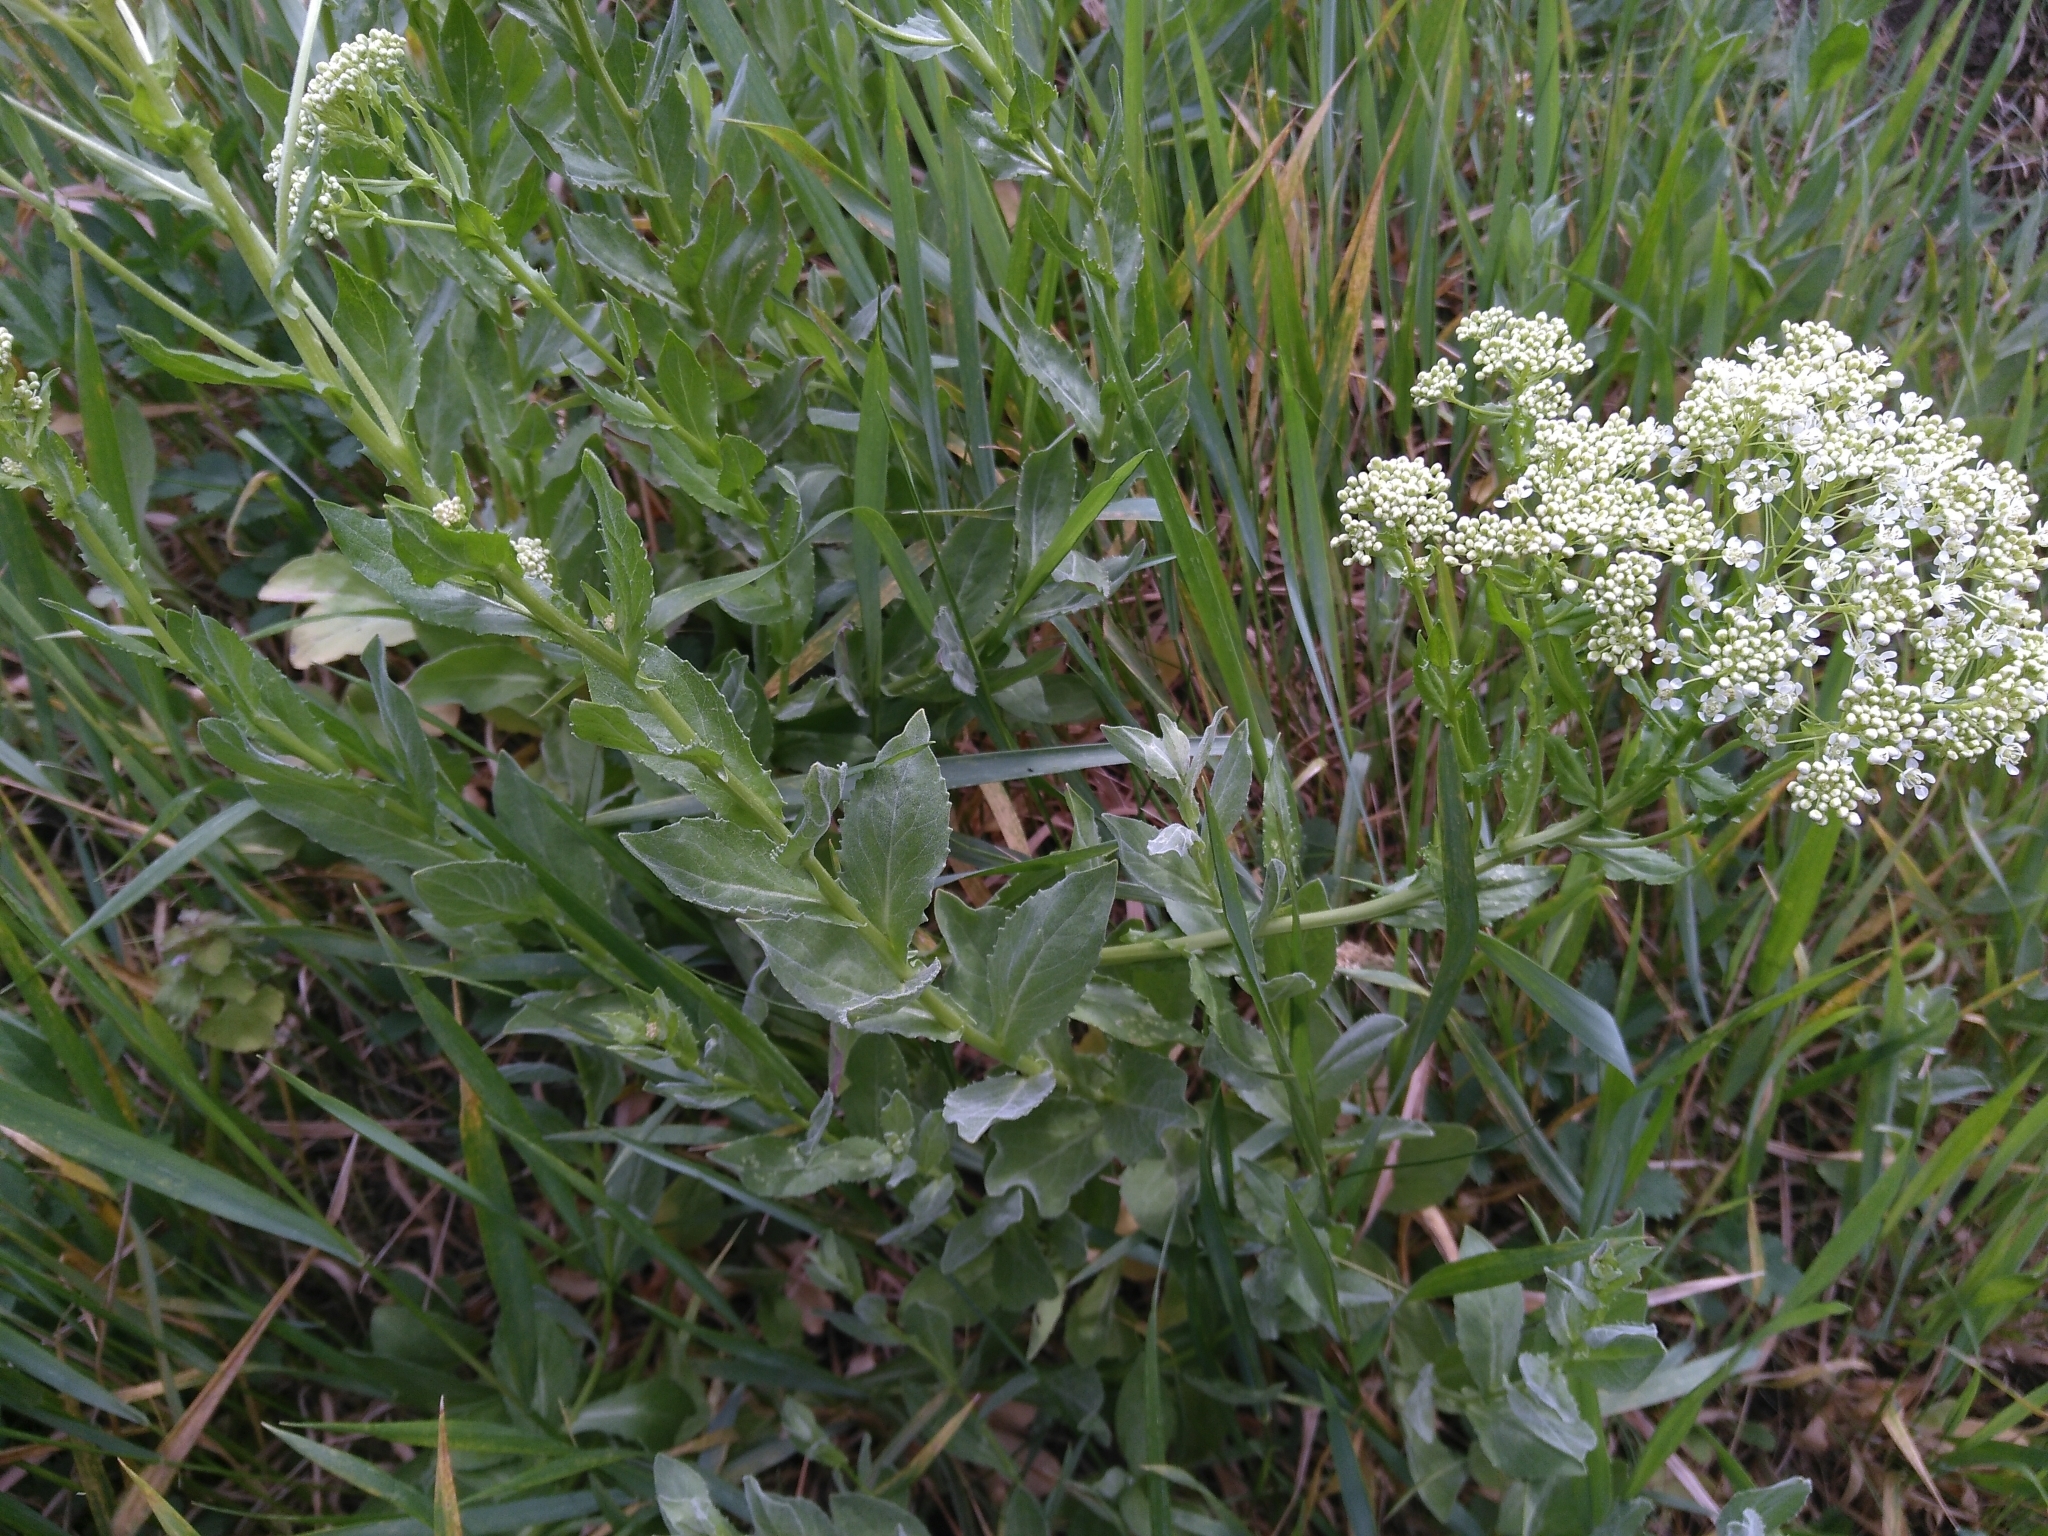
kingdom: Plantae
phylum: Tracheophyta
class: Magnoliopsida
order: Brassicales
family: Brassicaceae
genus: Lepidium
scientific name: Lepidium draba
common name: Hoary cress
